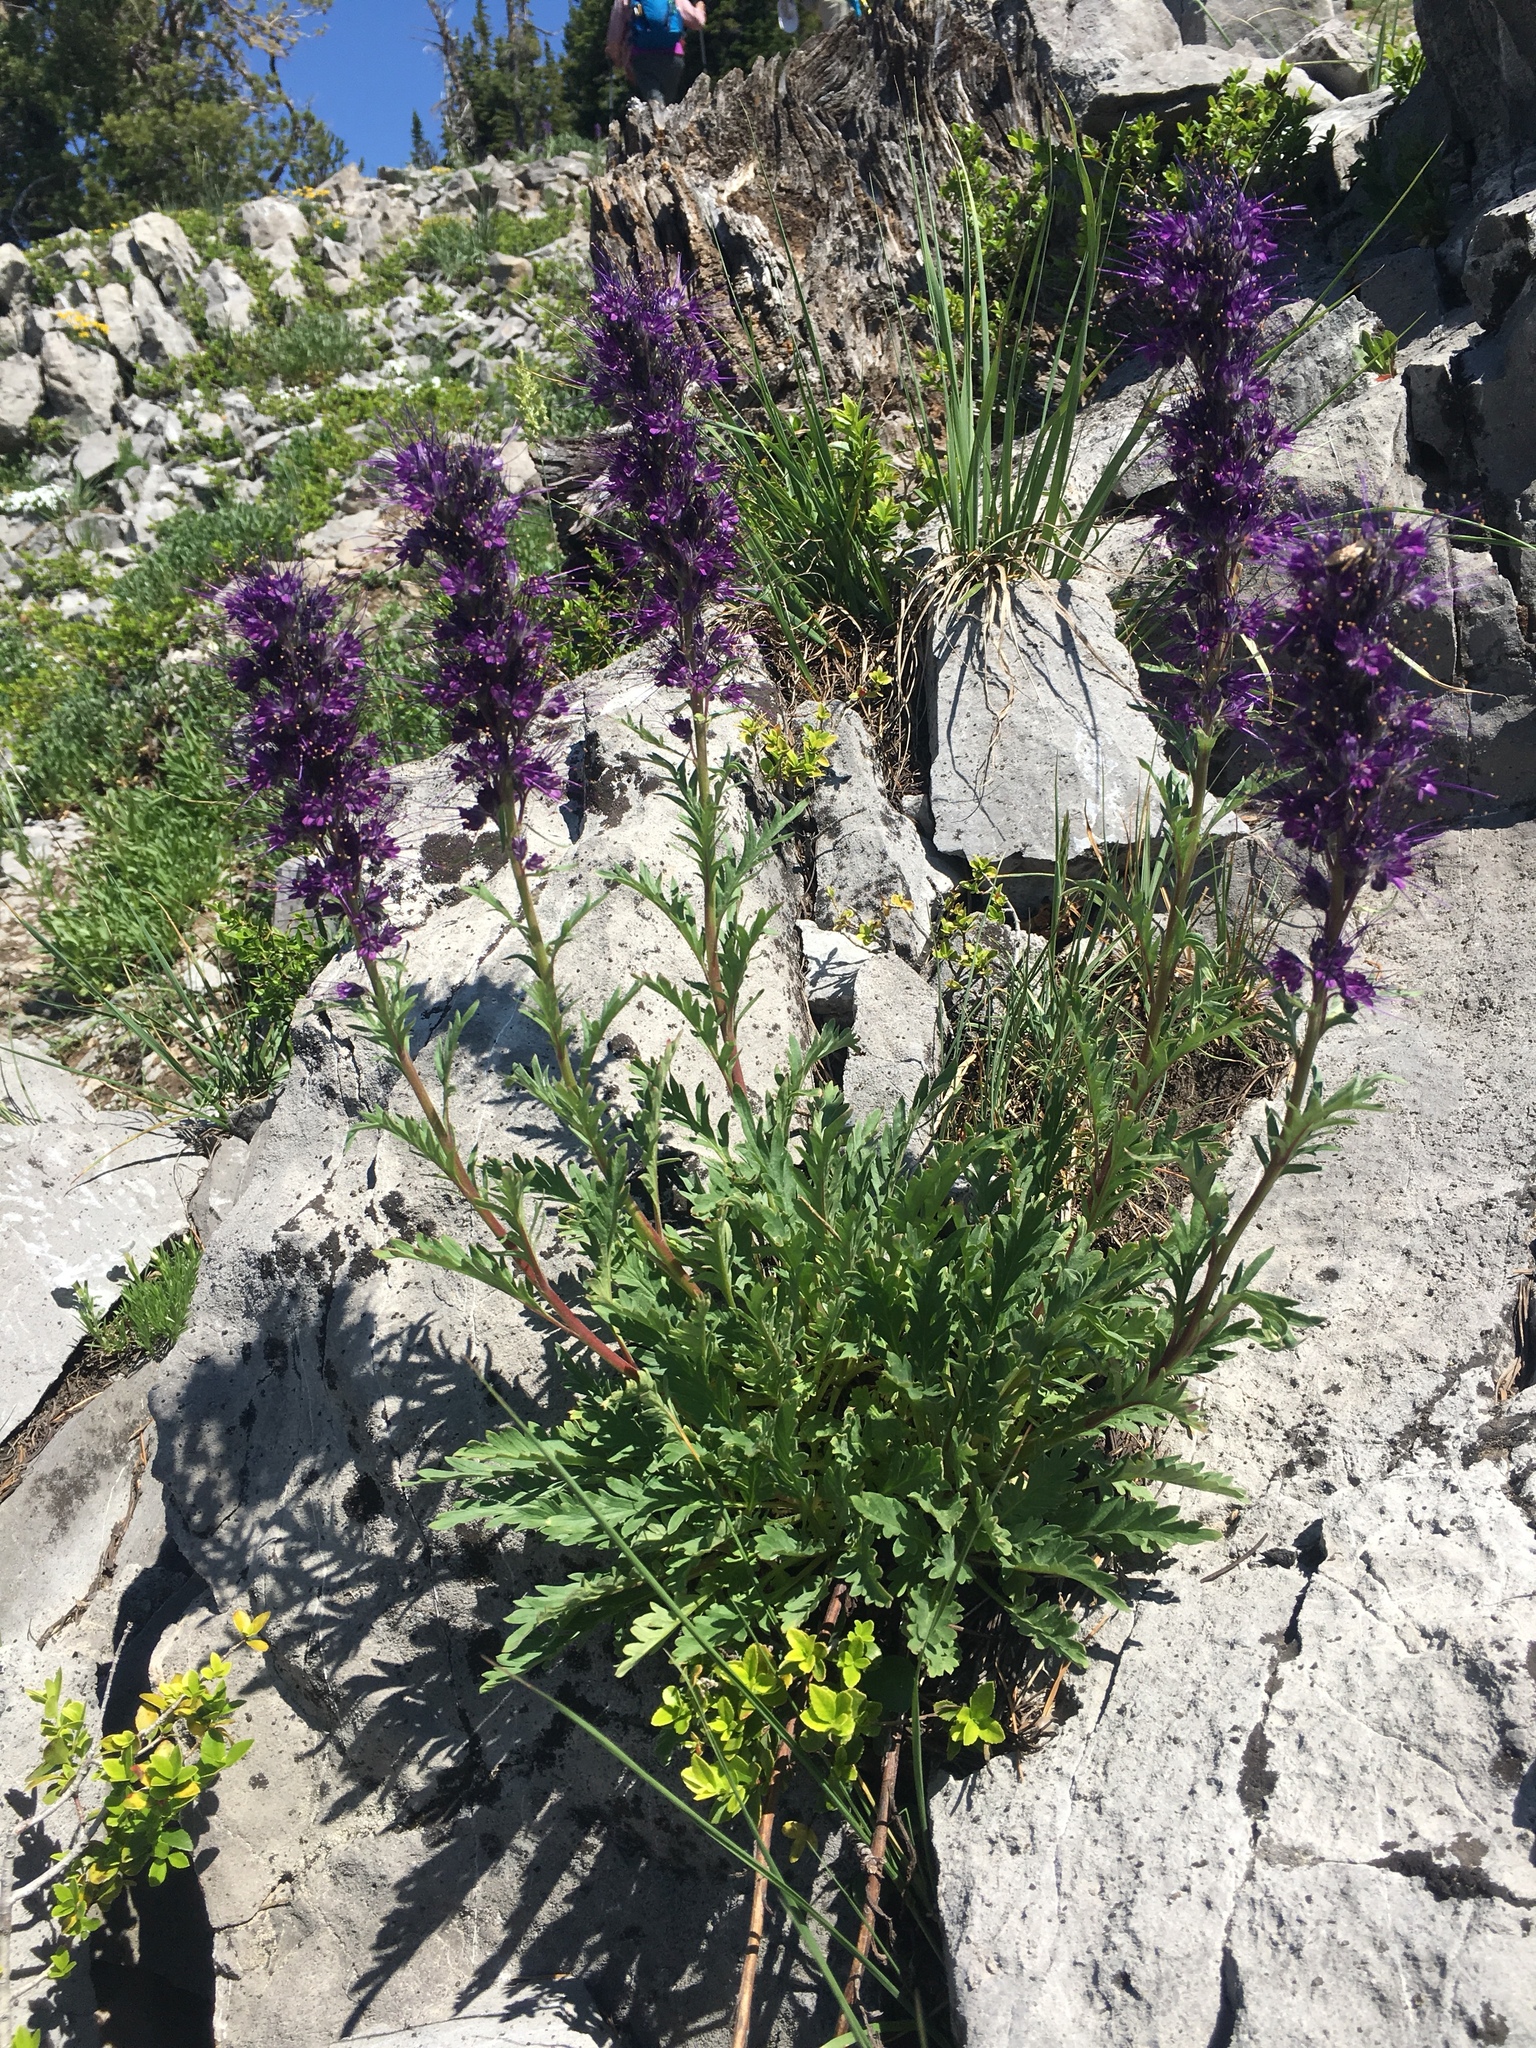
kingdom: Plantae
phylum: Tracheophyta
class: Magnoliopsida
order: Boraginales
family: Hydrophyllaceae
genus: Phacelia
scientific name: Phacelia sericea
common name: Silky phacelia
